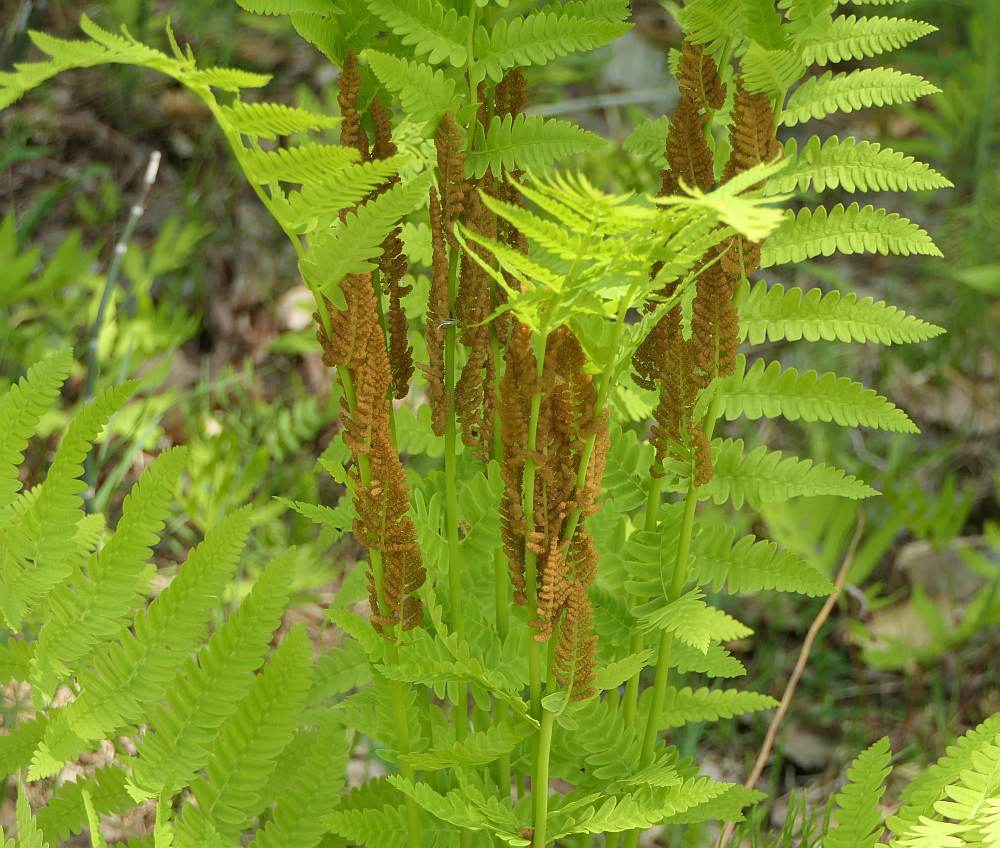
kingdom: Plantae
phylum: Tracheophyta
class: Polypodiopsida
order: Osmundales
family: Osmundaceae
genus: Claytosmunda
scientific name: Claytosmunda claytoniana
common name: Clayton's fern
